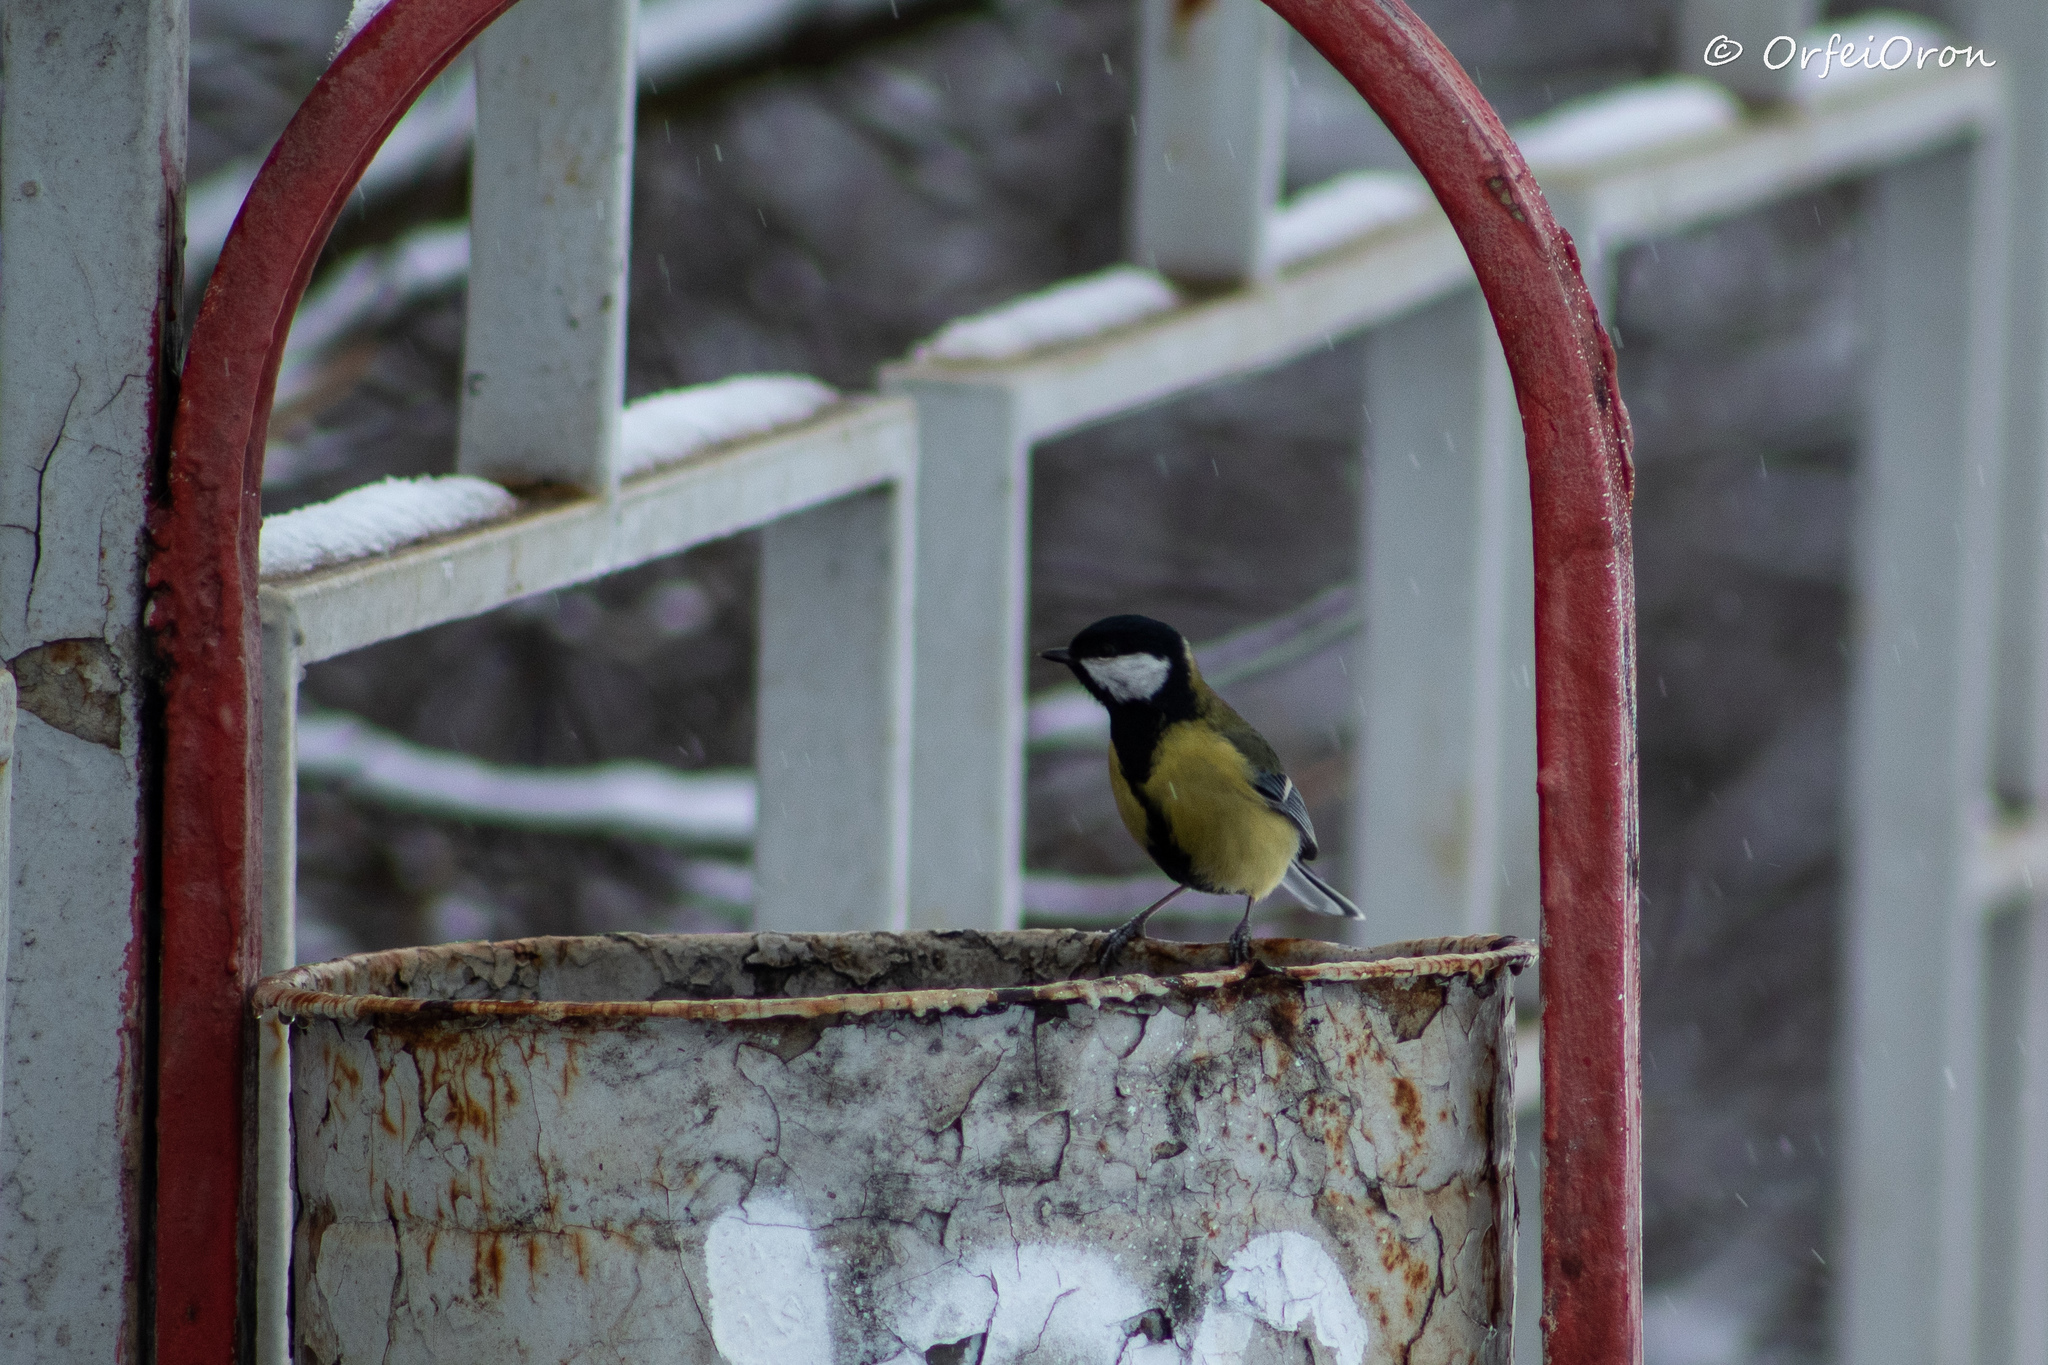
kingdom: Animalia
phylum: Chordata
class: Aves
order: Passeriformes
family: Paridae
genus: Parus
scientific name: Parus major
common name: Great tit
